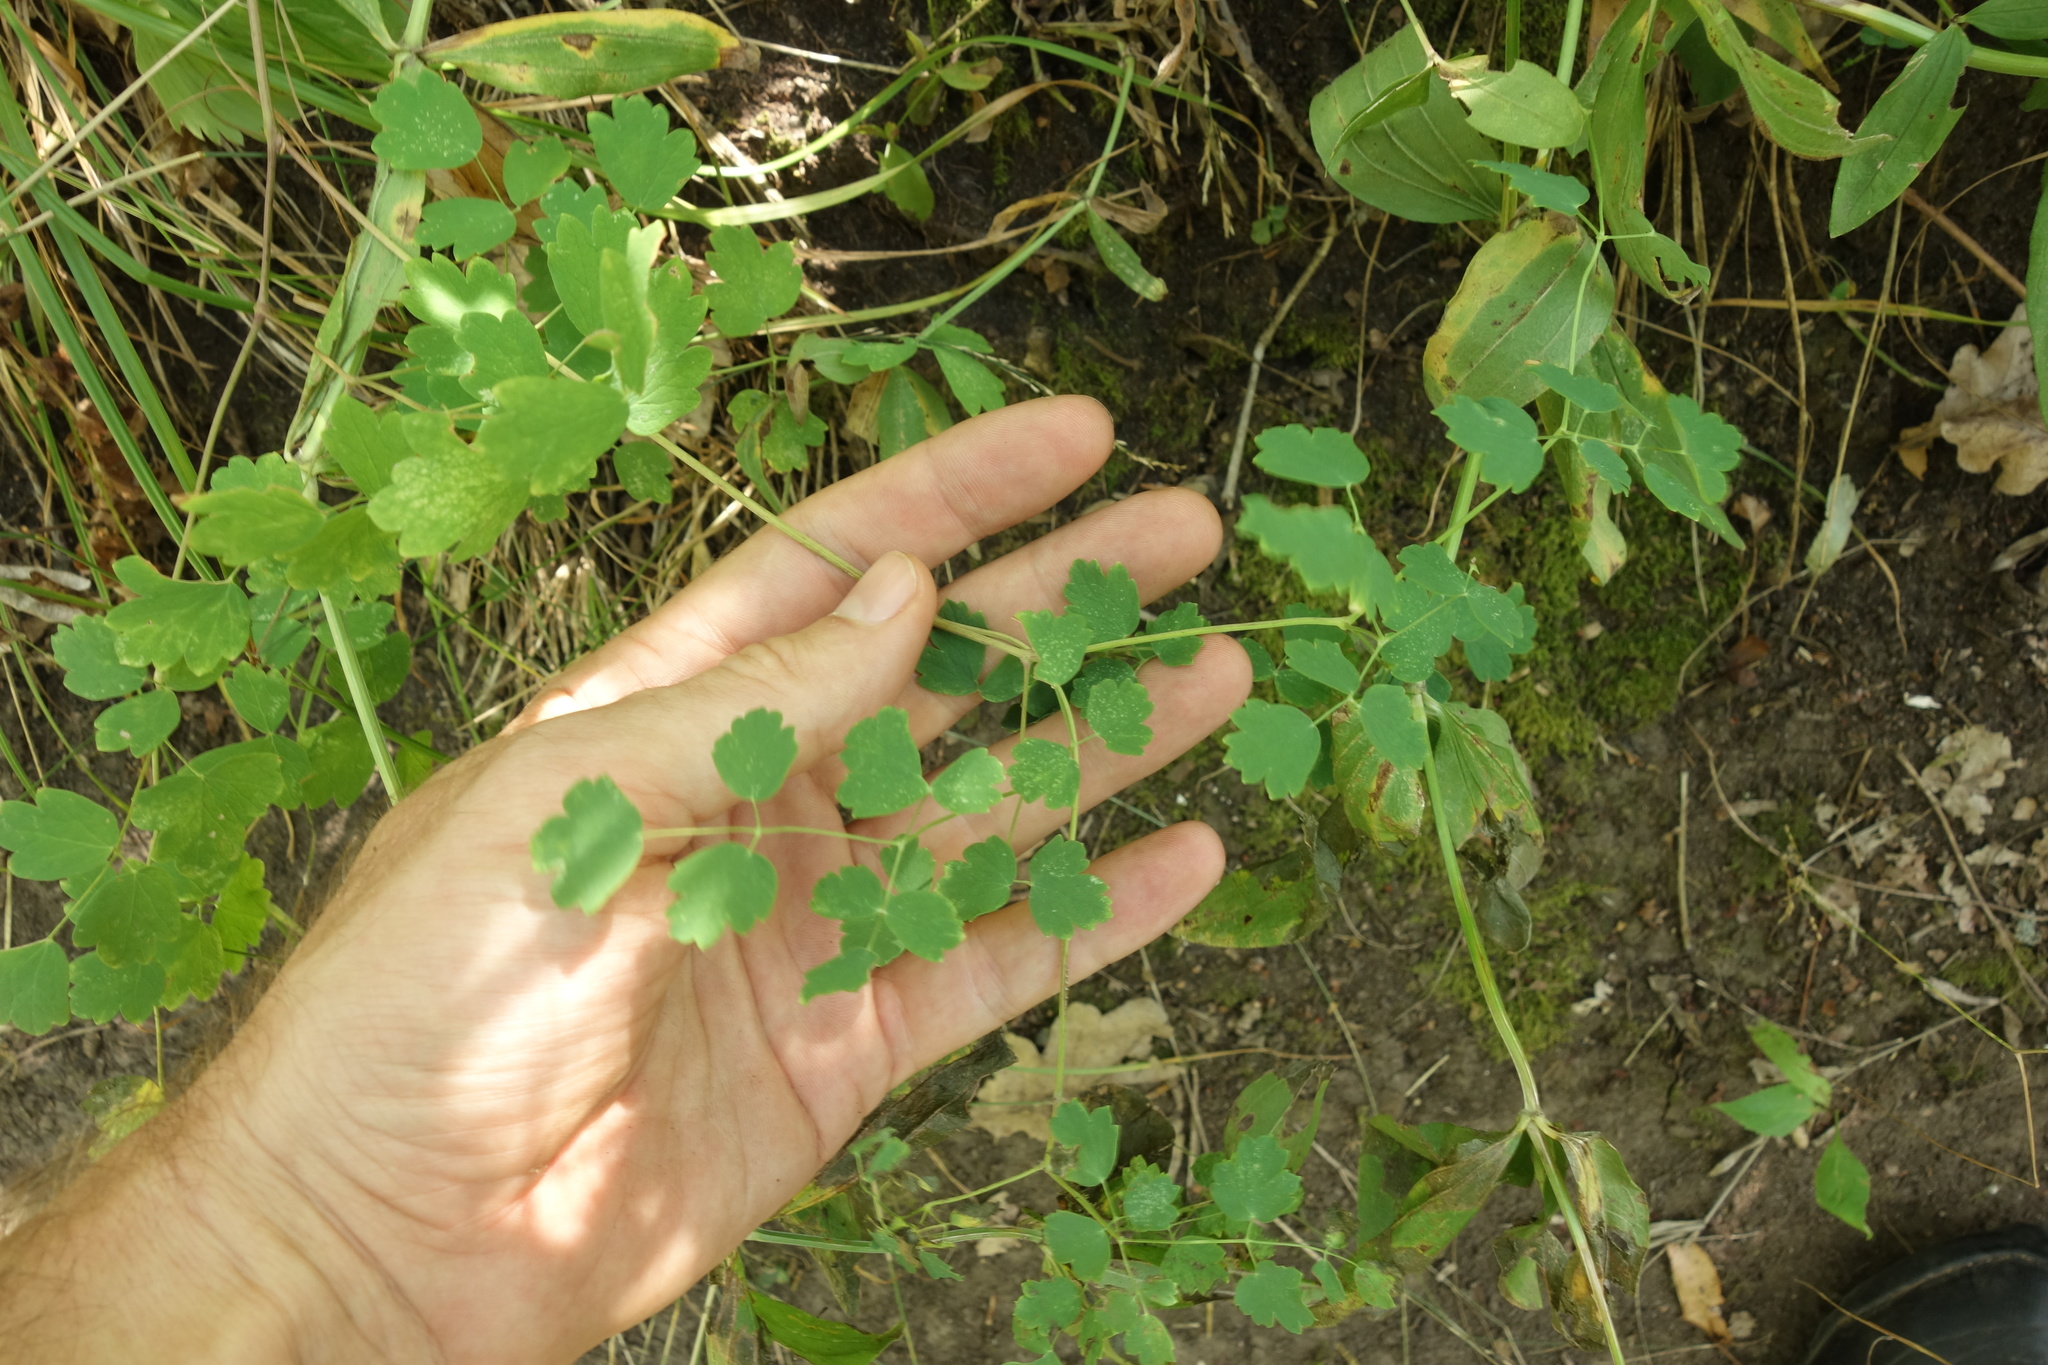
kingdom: Plantae
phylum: Tracheophyta
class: Magnoliopsida
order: Ranunculales
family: Ranunculaceae
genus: Thalictrum
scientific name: Thalictrum minus
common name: Lesser meadow-rue
